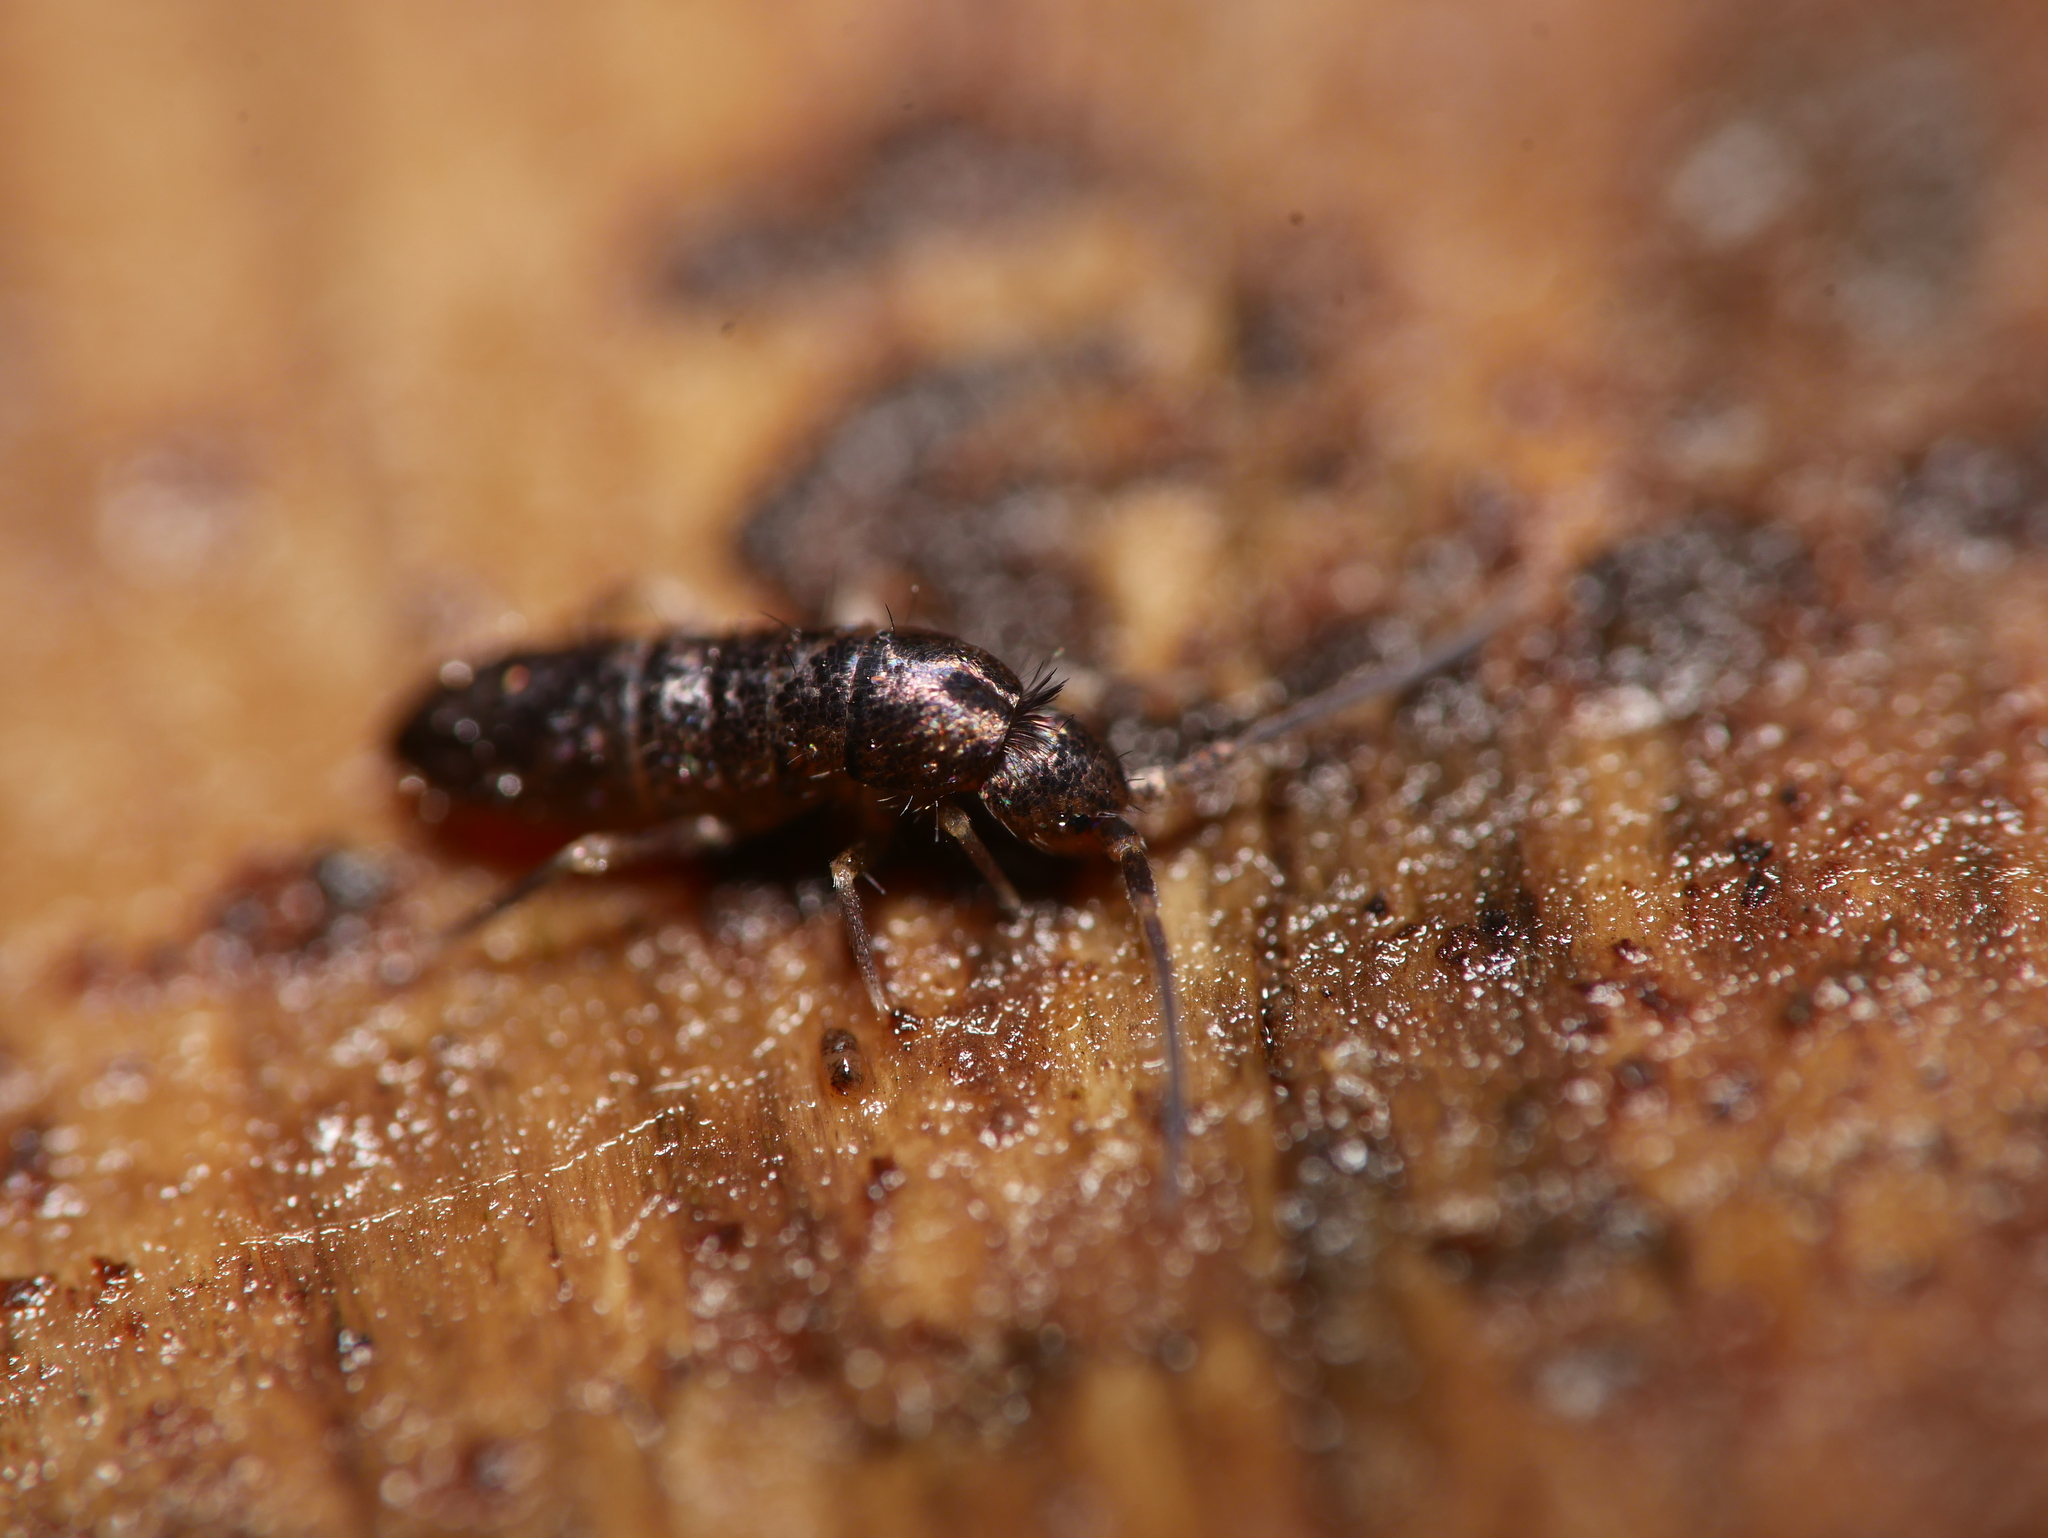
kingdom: Animalia
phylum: Arthropoda
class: Collembola
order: Entomobryomorpha
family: Tomoceridae
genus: Tomocerus
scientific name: Tomocerus vulgaris
